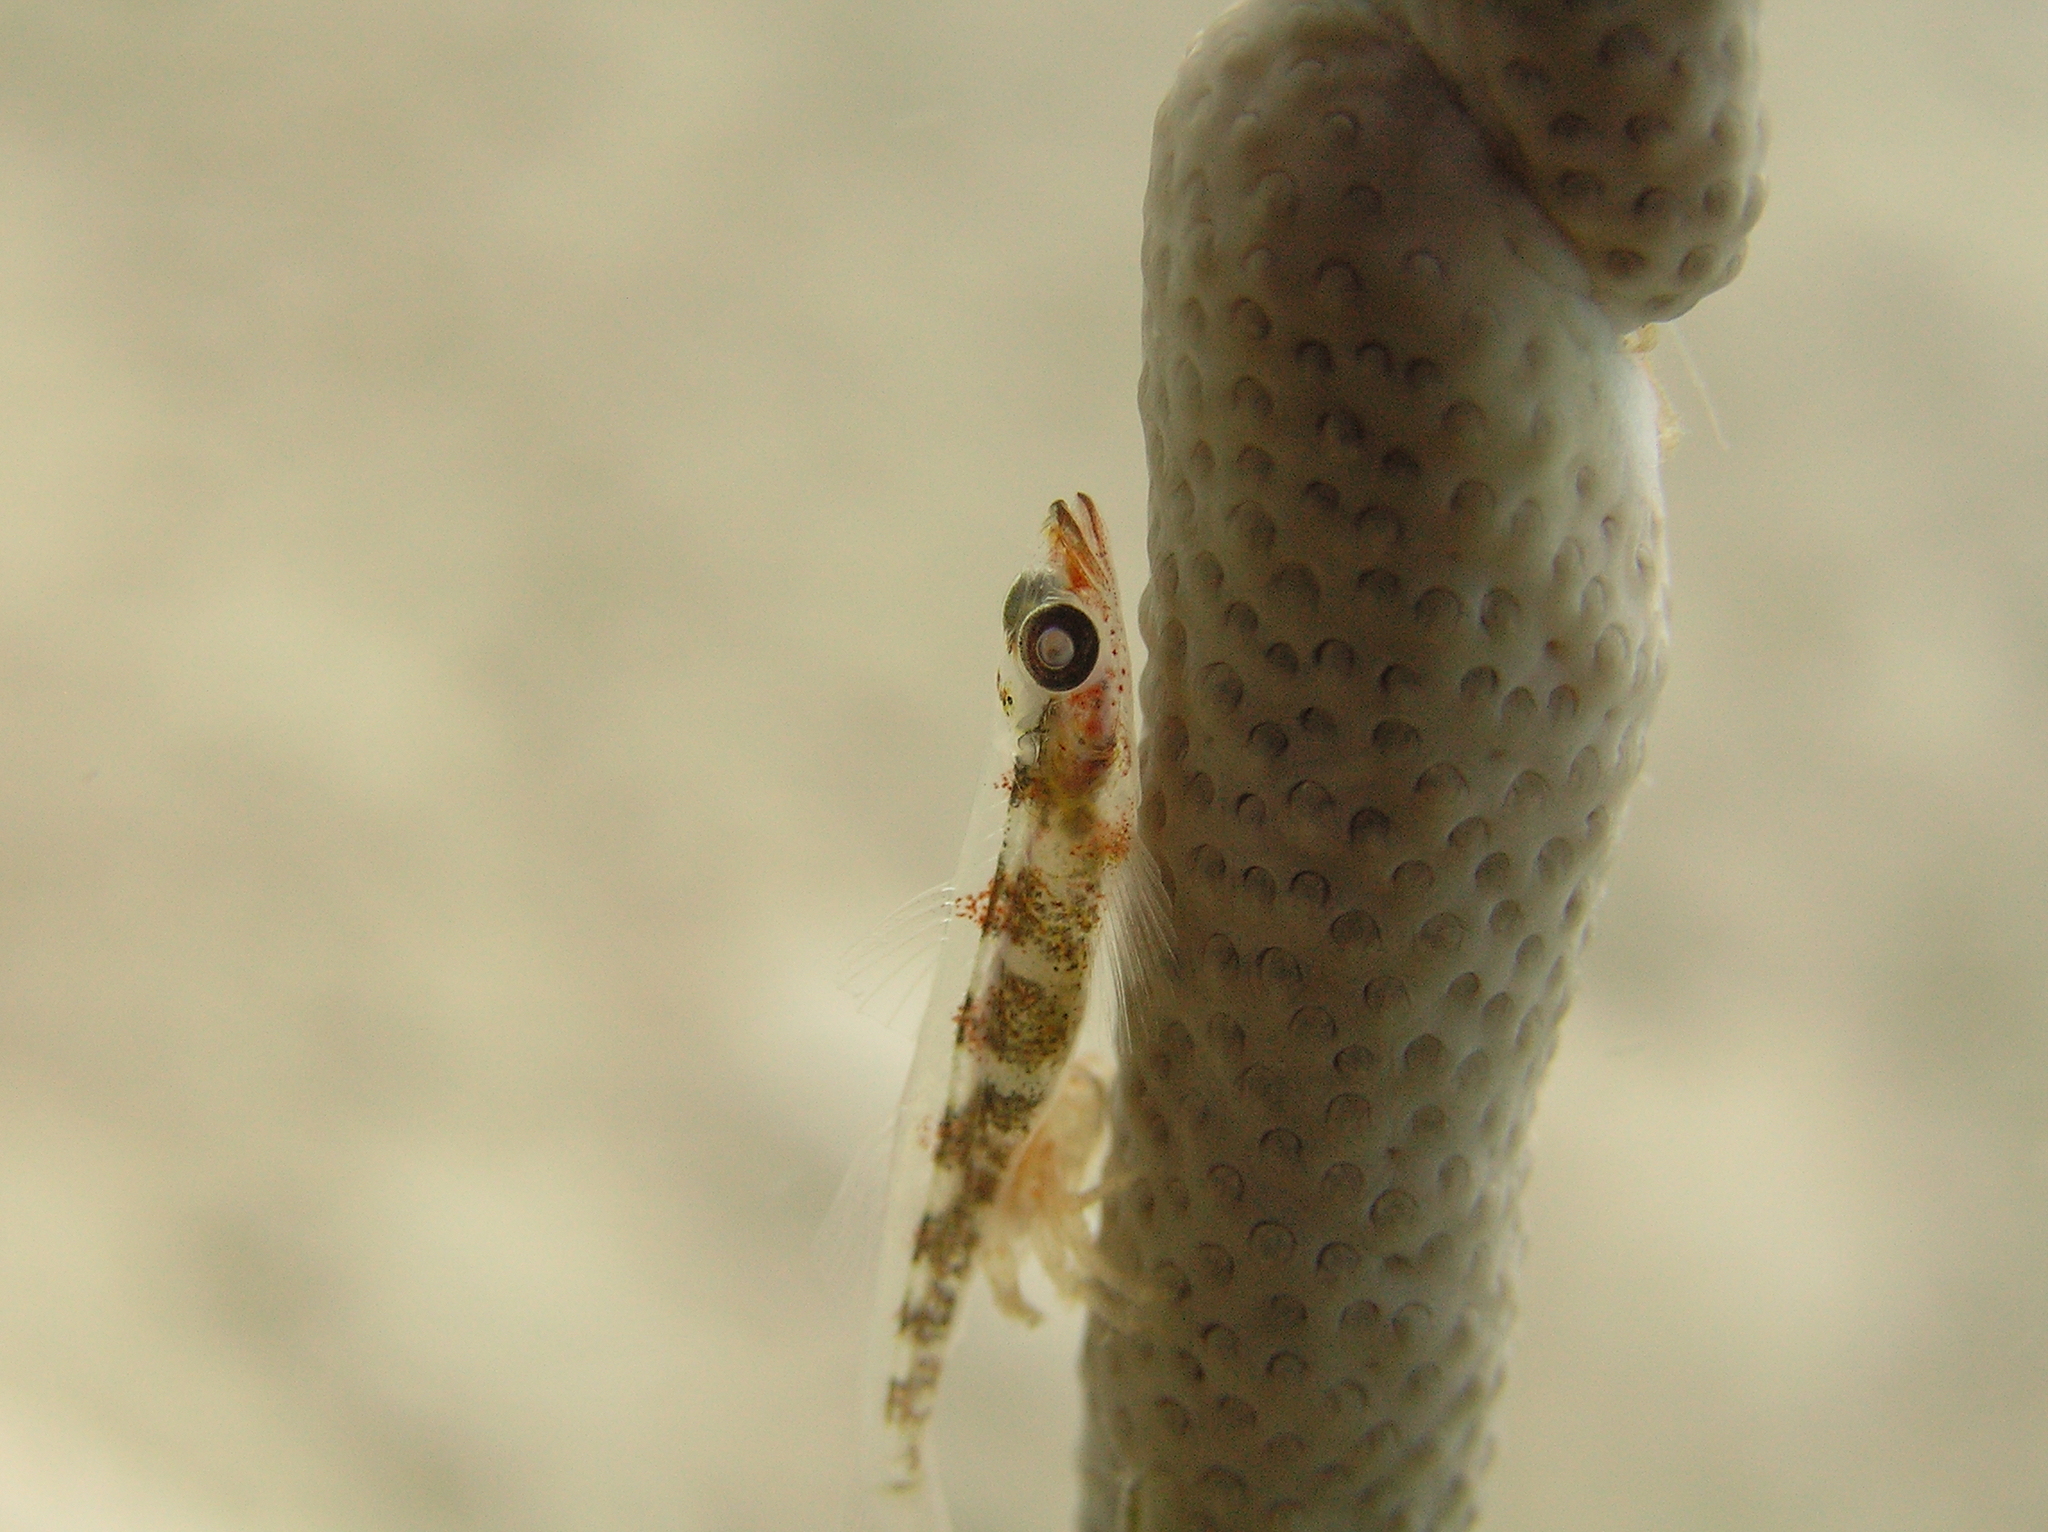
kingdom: Animalia
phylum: Chordata
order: Perciformes
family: Gobiidae
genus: Bryaninops
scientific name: Bryaninops amplus
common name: Large whip goby
